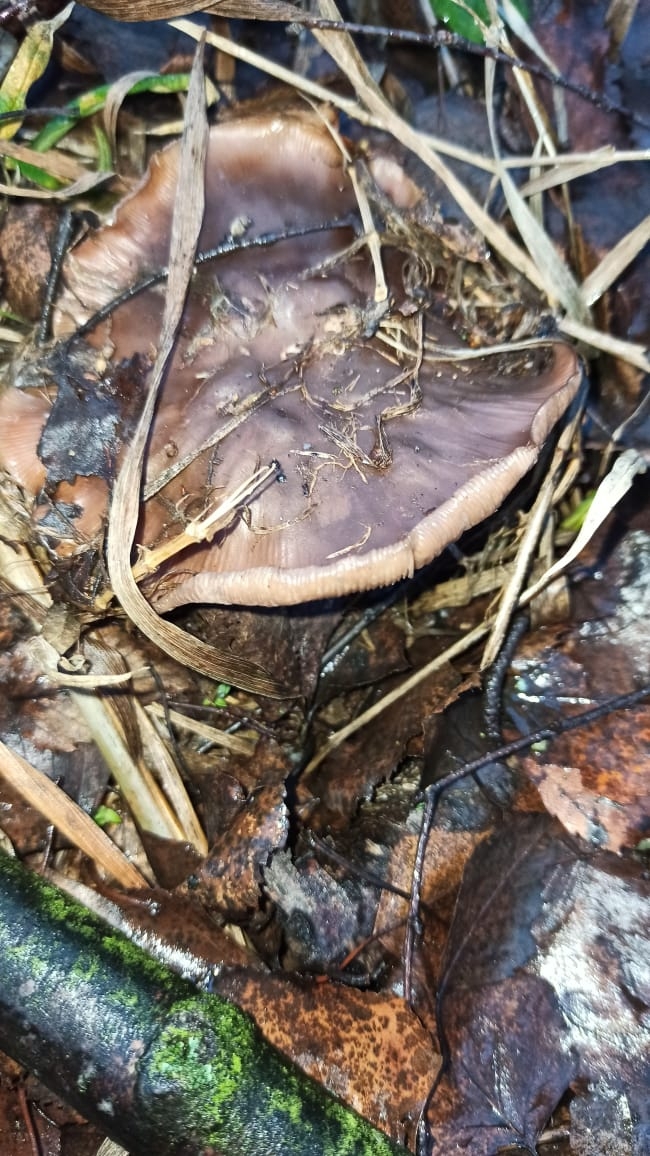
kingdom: Fungi
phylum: Basidiomycota
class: Agaricomycetes
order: Agaricales
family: Tricholomataceae
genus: Collybia
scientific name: Collybia
